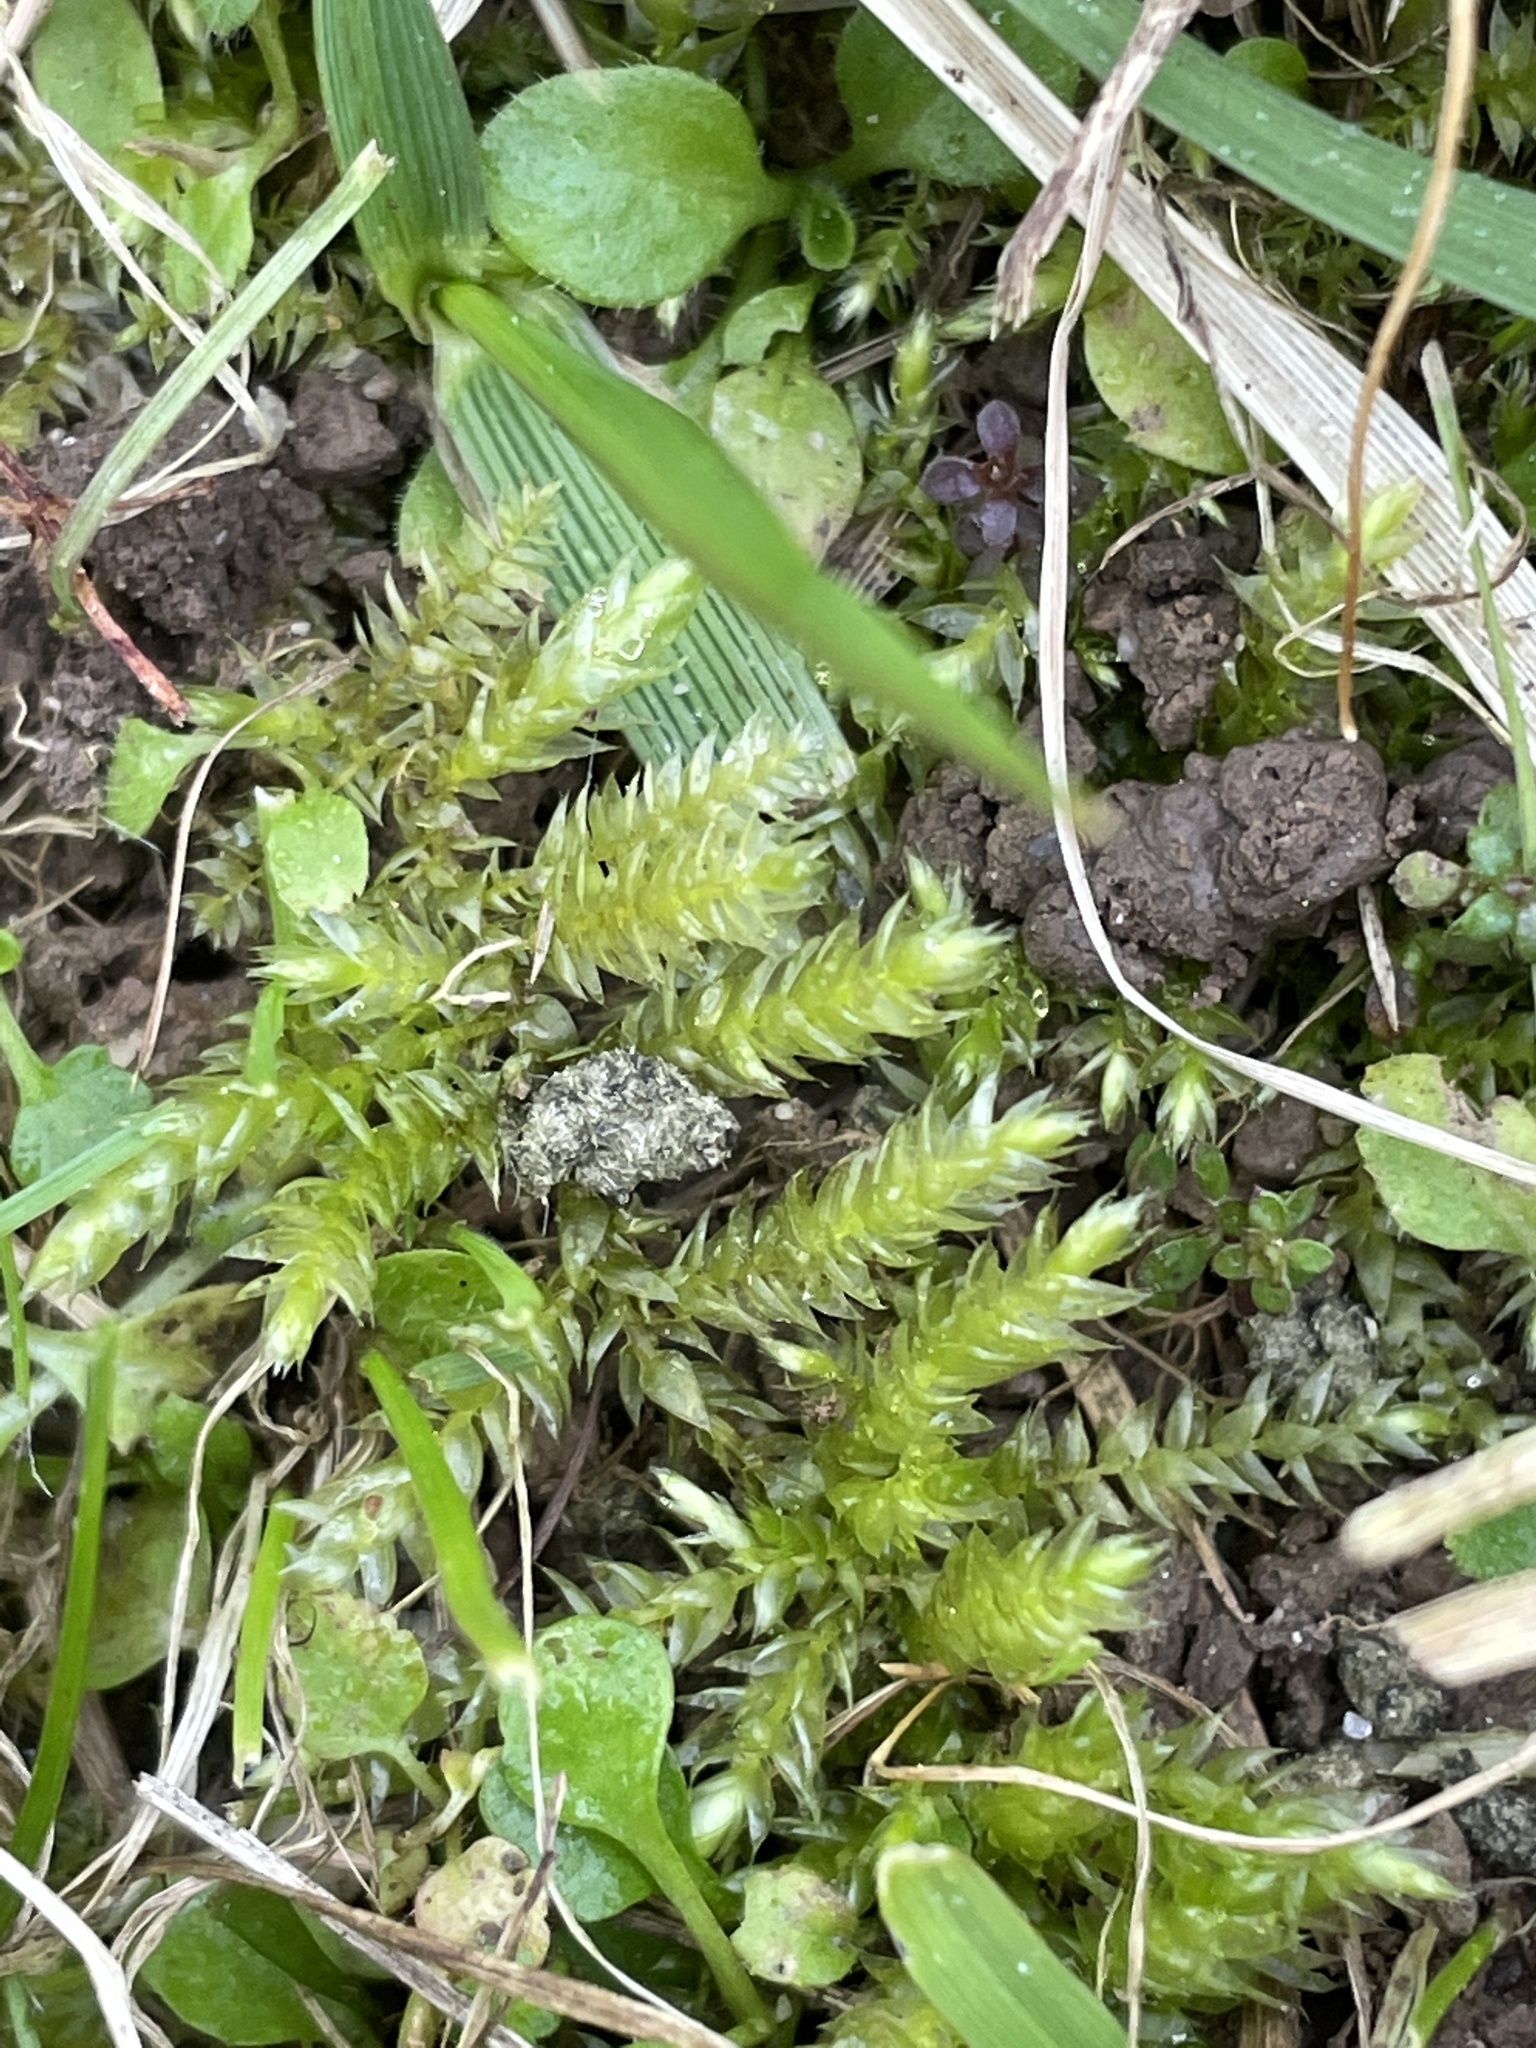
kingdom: Plantae
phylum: Bryophyta
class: Bryopsida
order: Hypnales
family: Brachytheciaceae
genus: Brachythecium
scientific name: Brachythecium rutabulum
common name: Rough-stalked feather-moss
